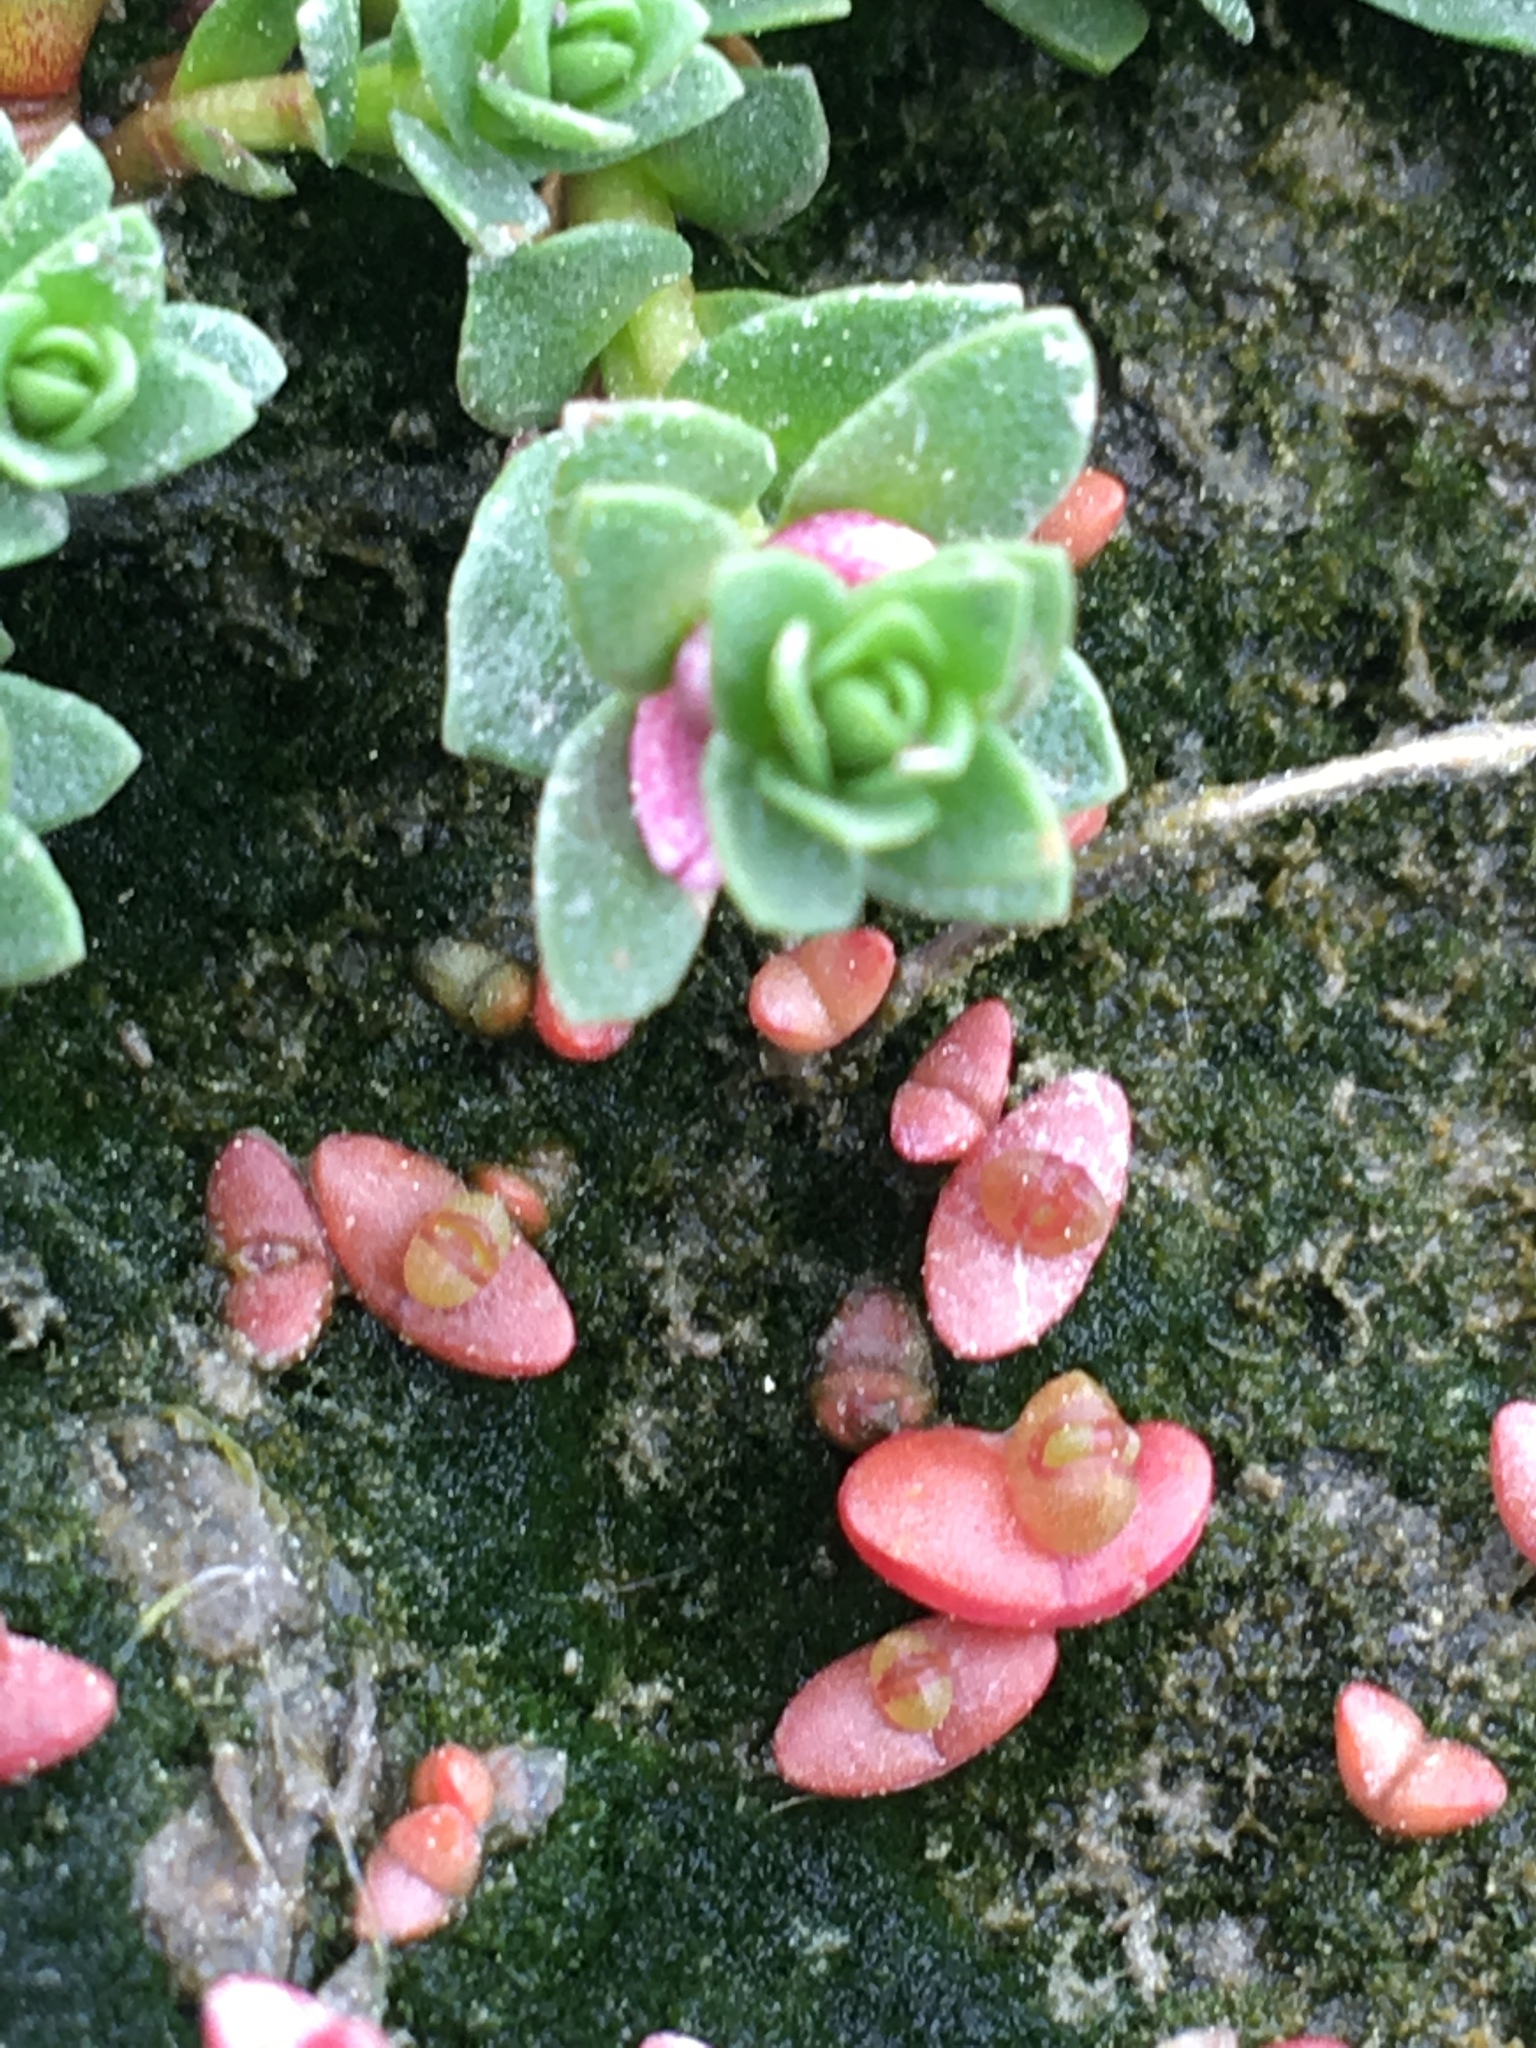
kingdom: Plantae
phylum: Tracheophyta
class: Magnoliopsida
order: Ericales
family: Primulaceae
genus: Lysimachia
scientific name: Lysimachia maritima
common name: Sea milkwort
